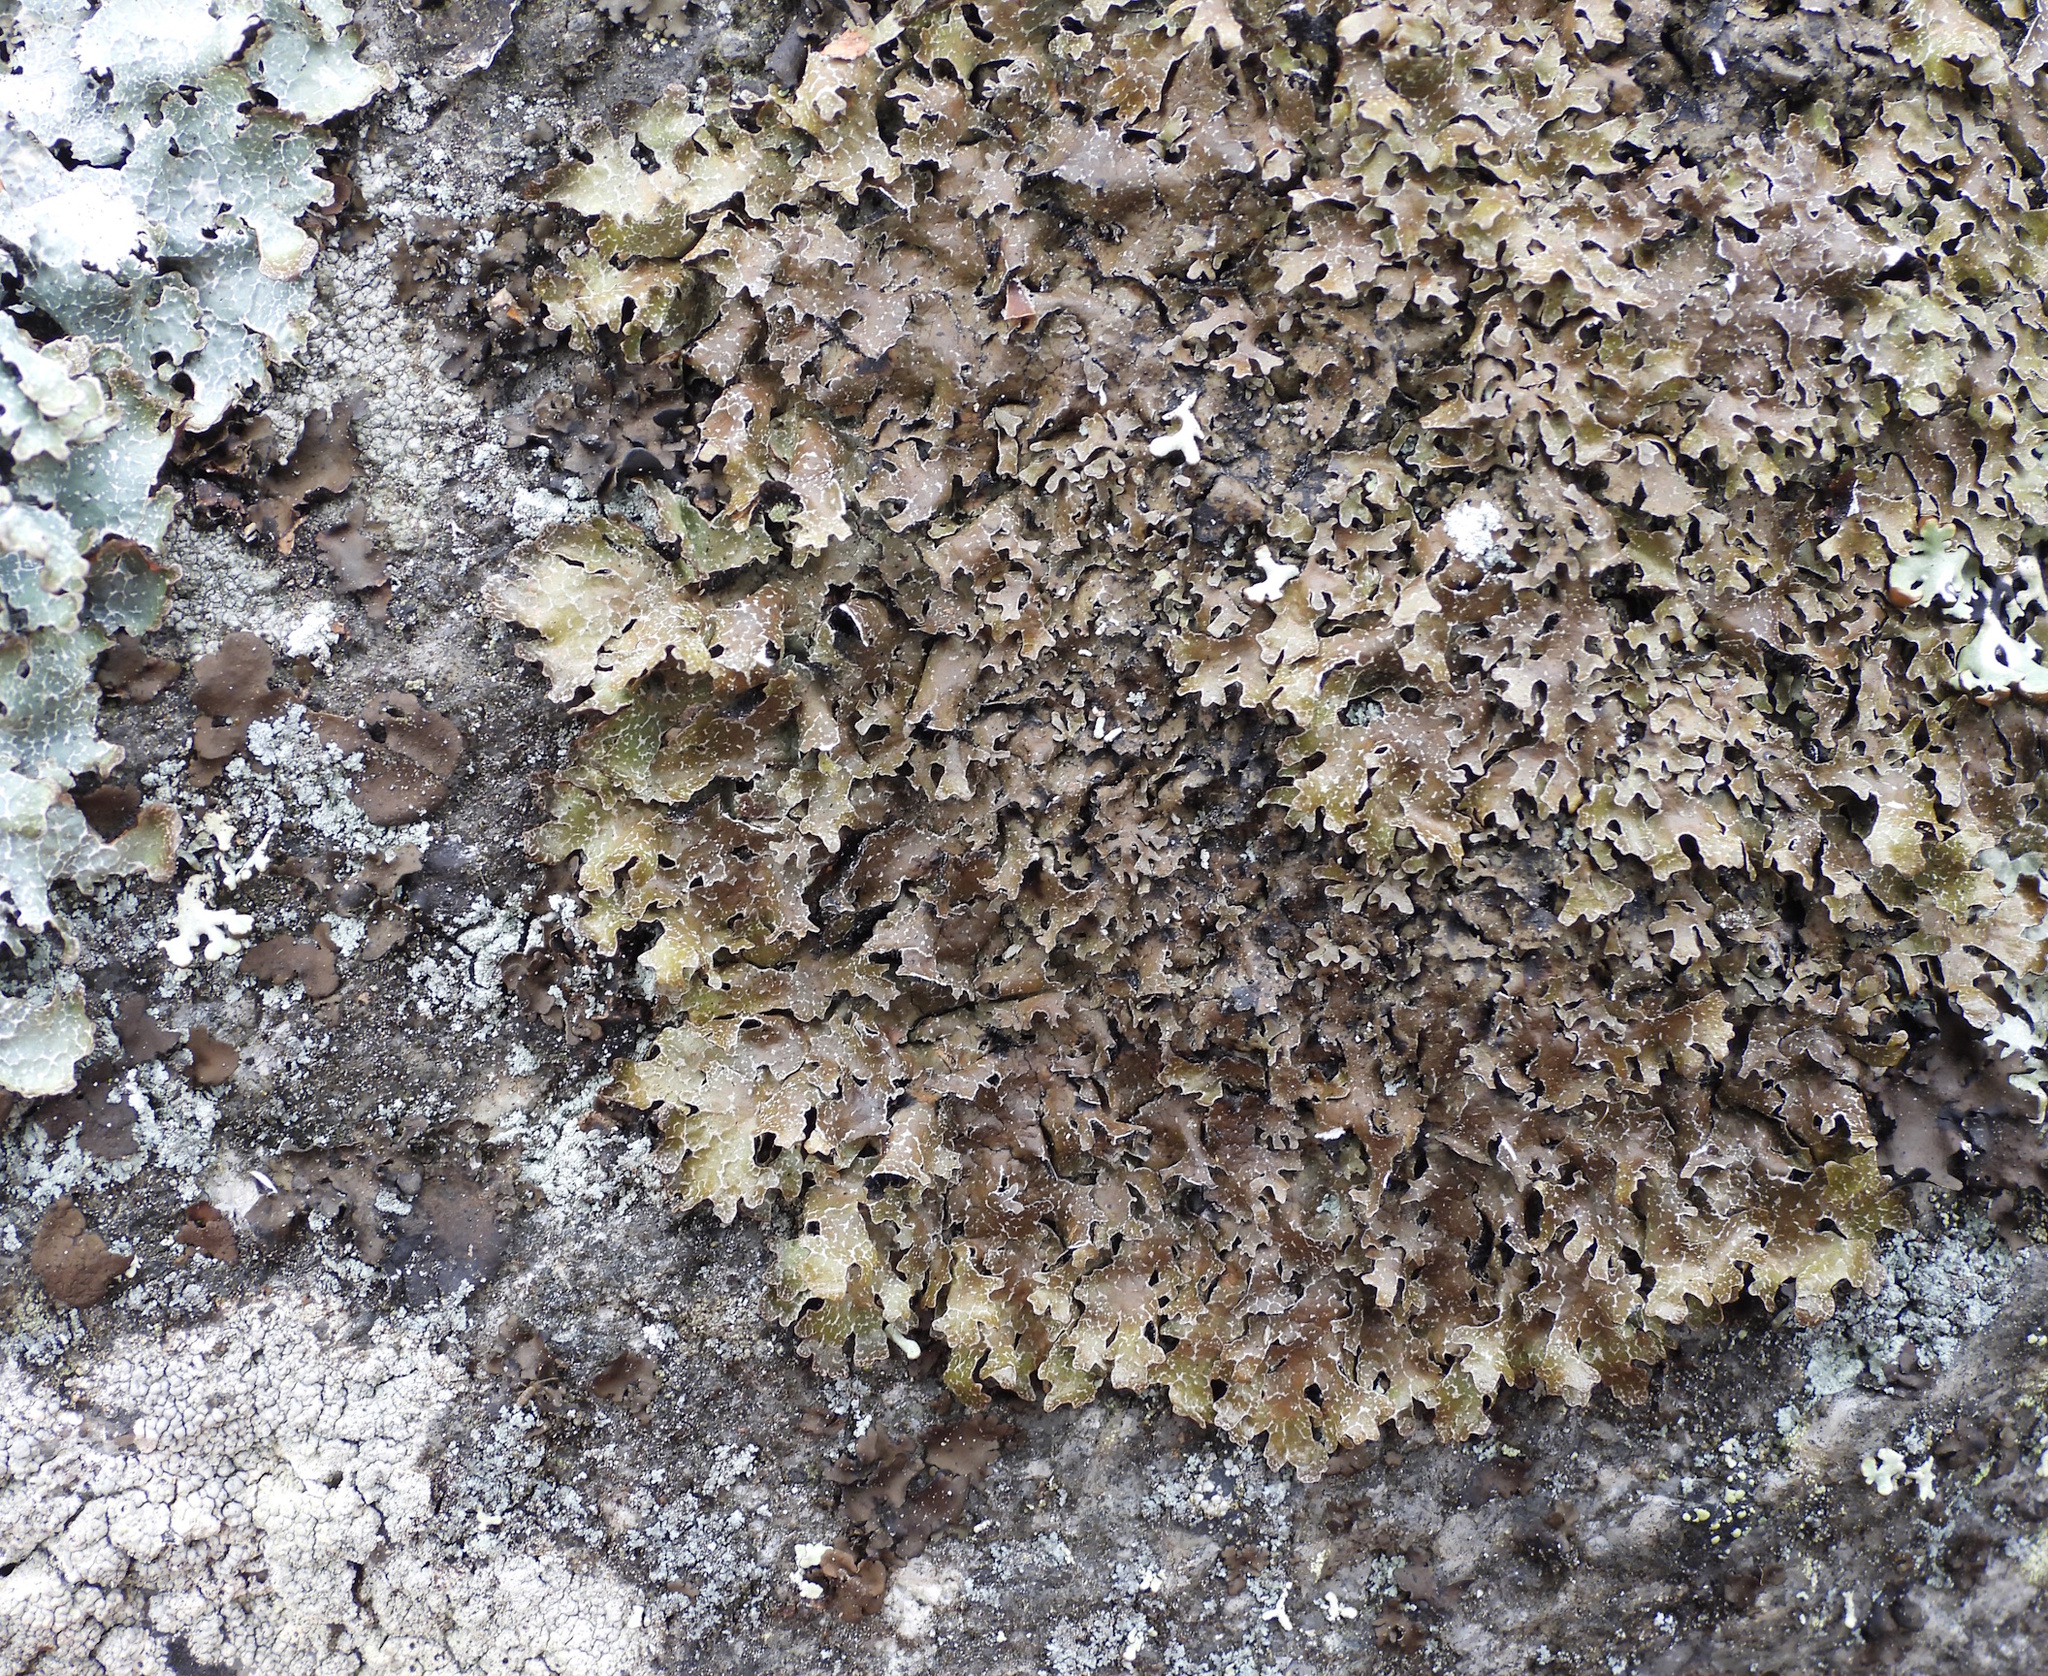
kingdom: Fungi
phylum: Ascomycota
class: Lecanoromycetes
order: Lecanorales
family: Parmeliaceae
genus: Parmelia
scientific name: Parmelia omphalodes
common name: Smoky crottle
